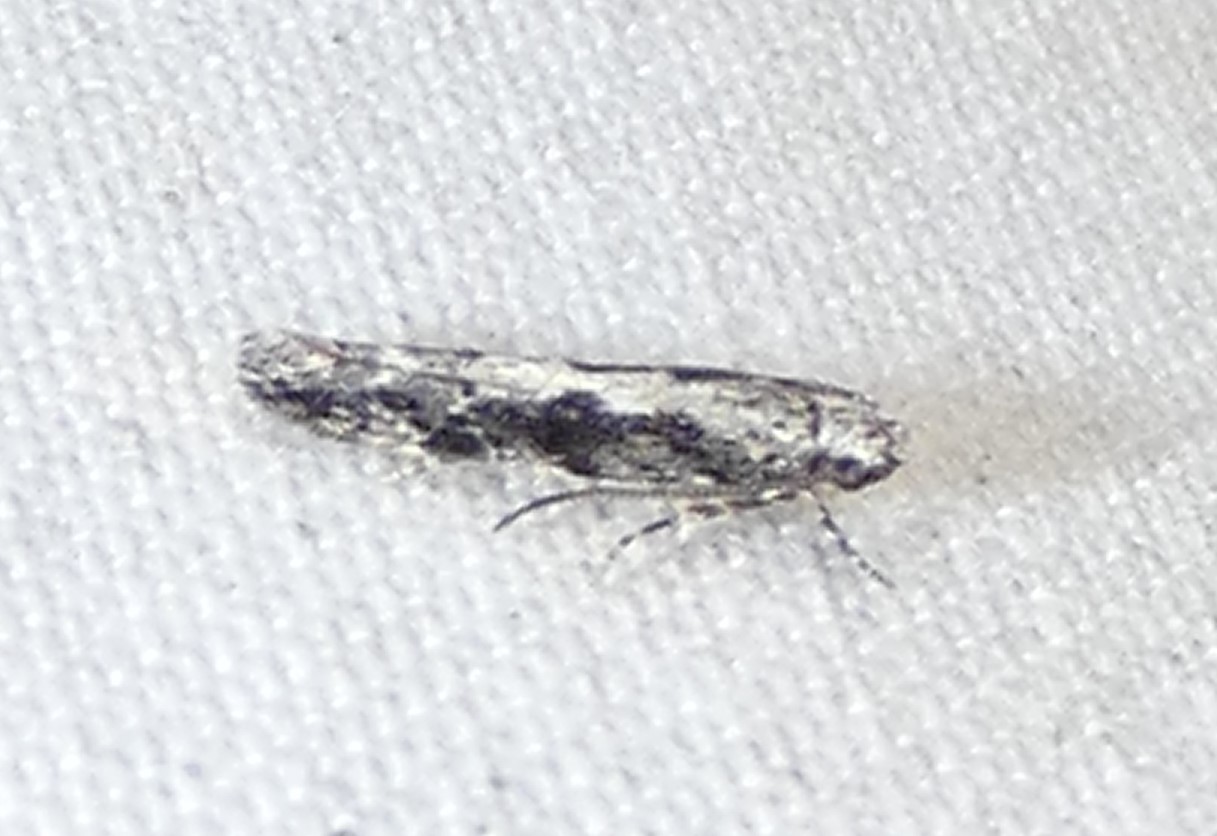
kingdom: Animalia
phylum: Arthropoda
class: Insecta
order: Lepidoptera
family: Plutellidae
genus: Plutella
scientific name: Plutella xylostella
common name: Diamond-back moth
